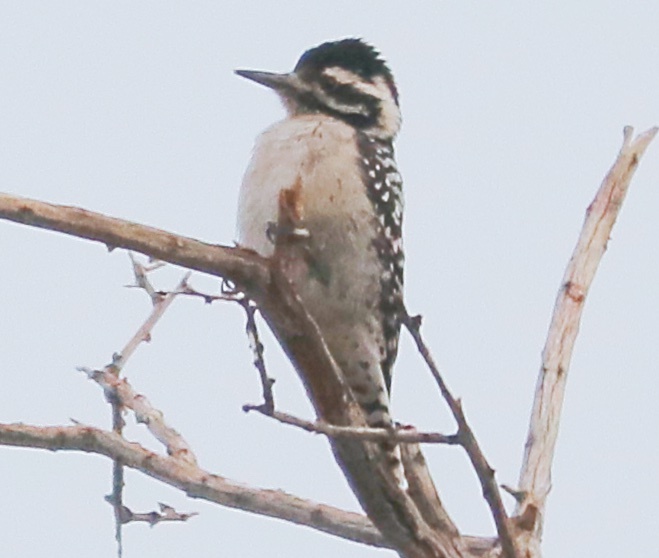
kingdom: Animalia
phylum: Chordata
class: Aves
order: Piciformes
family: Picidae
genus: Dryobates
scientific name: Dryobates scalaris
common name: Ladder-backed woodpecker
